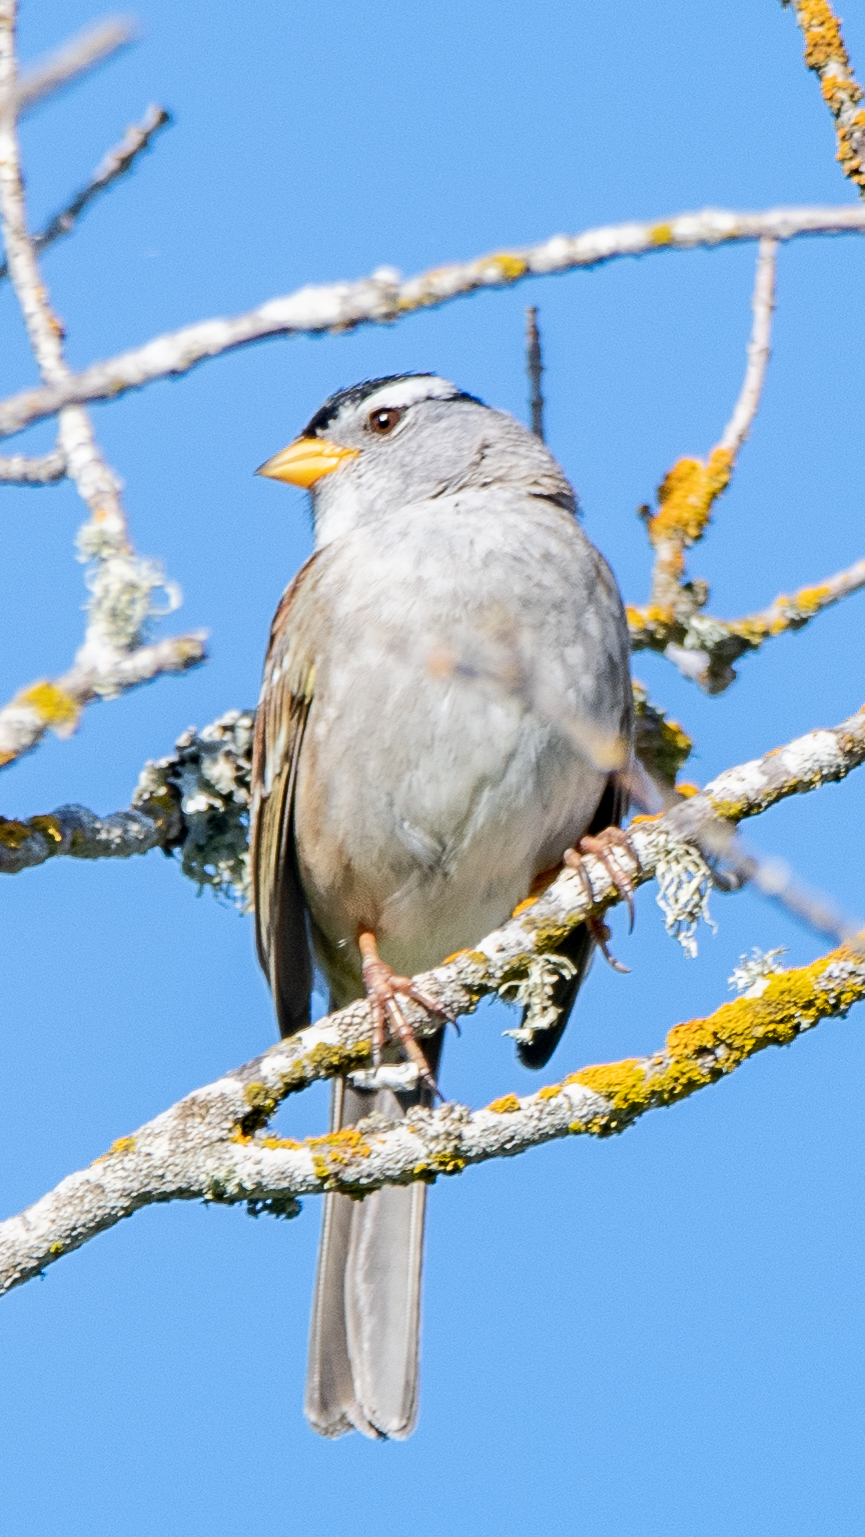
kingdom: Animalia
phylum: Chordata
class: Aves
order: Passeriformes
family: Passerellidae
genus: Zonotrichia
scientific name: Zonotrichia leucophrys
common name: White-crowned sparrow
